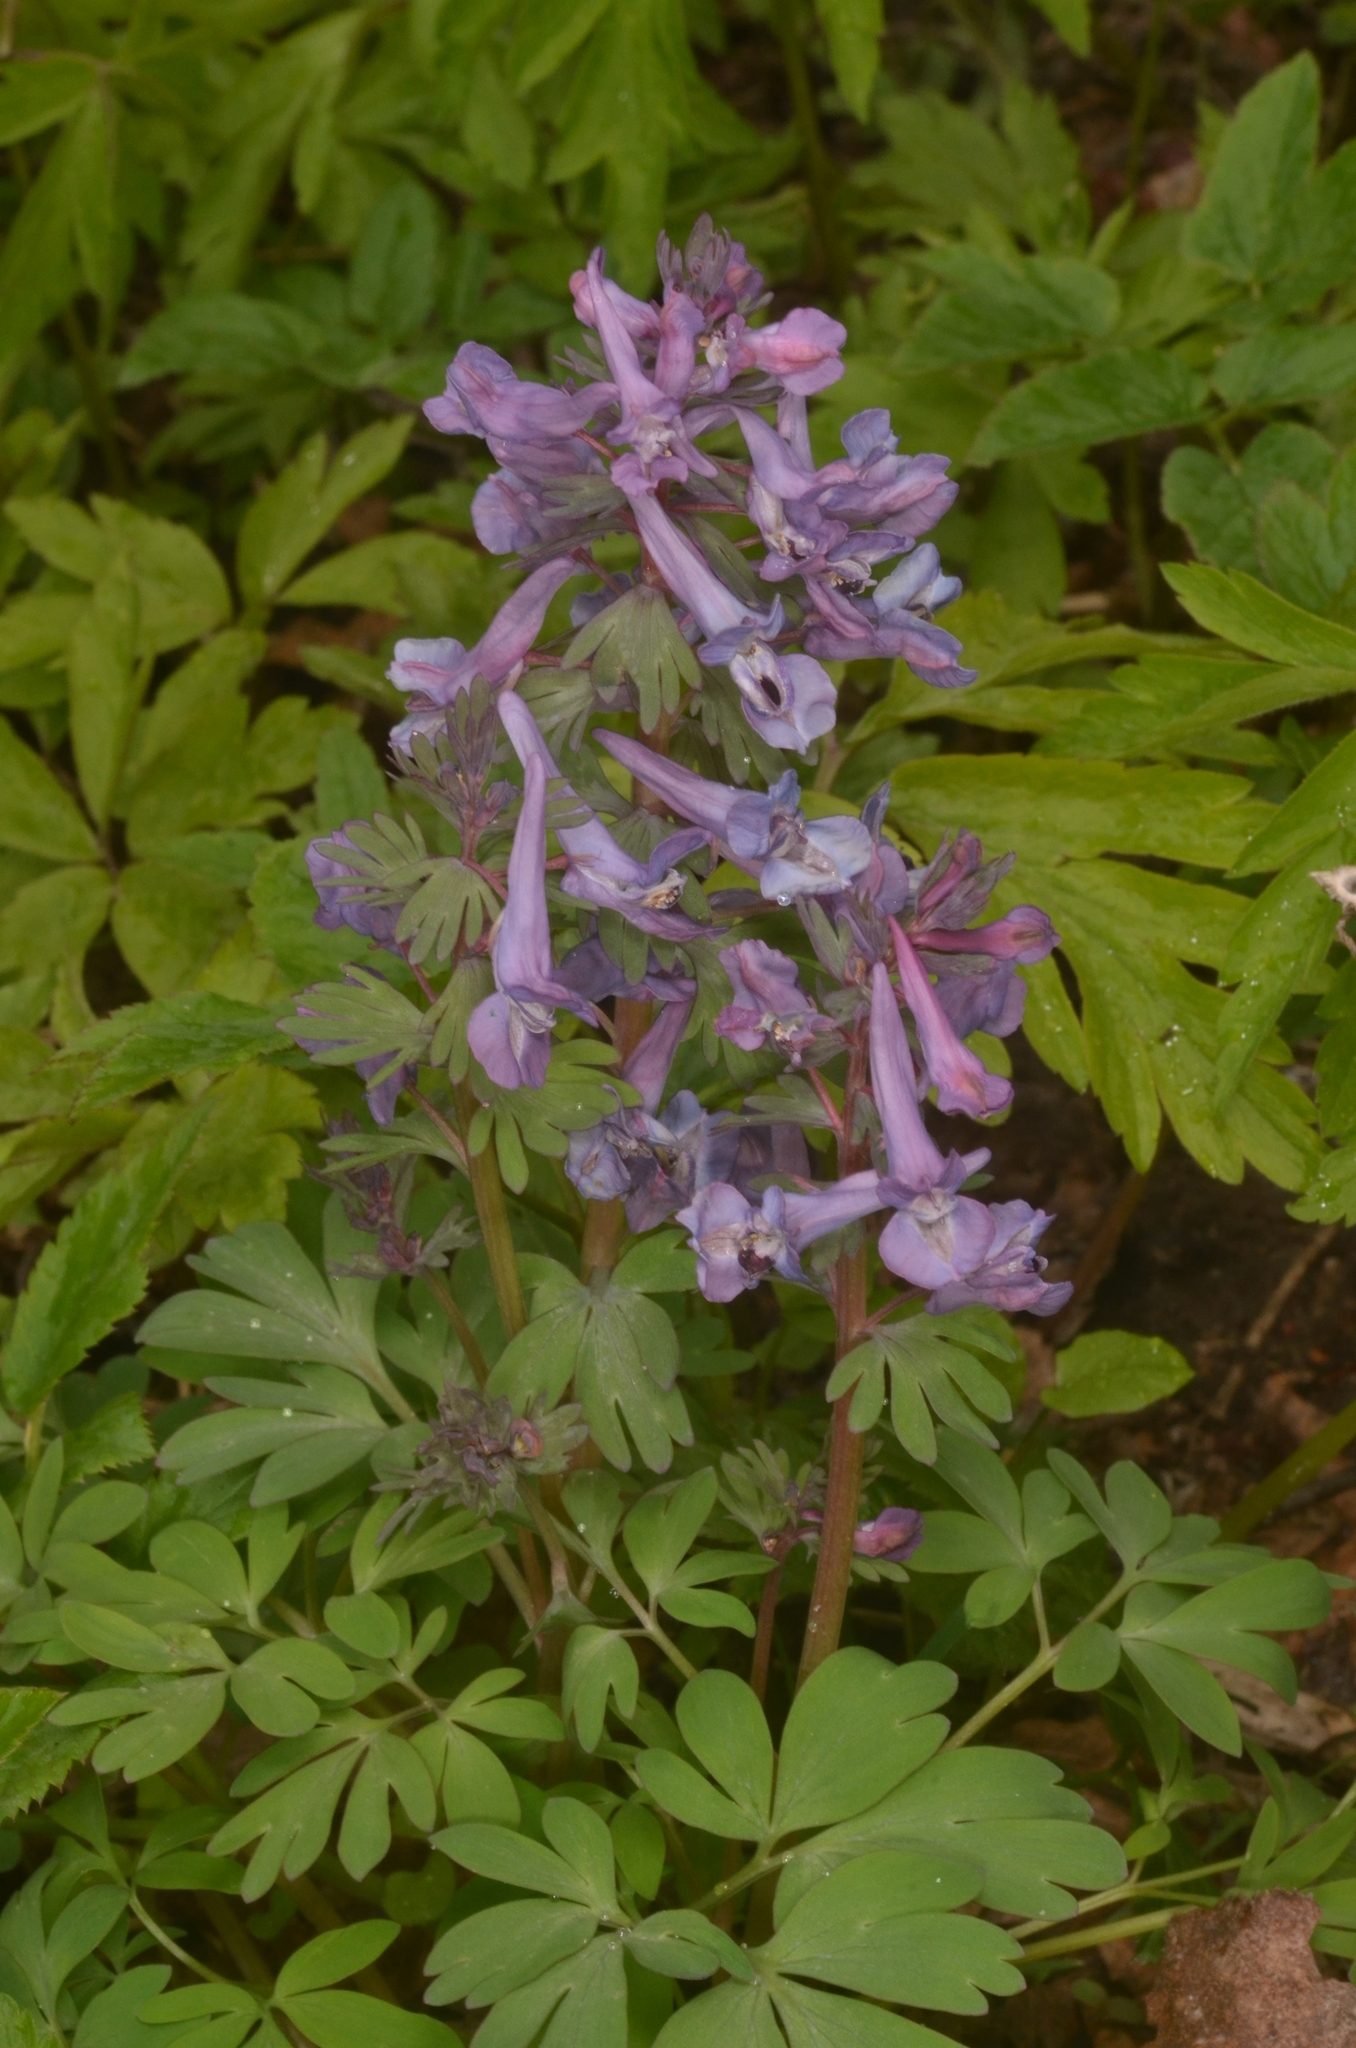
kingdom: Plantae
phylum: Tracheophyta
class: Magnoliopsida
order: Ranunculales
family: Papaveraceae
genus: Corydalis
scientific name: Corydalis solida
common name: Bird-in-a-bush
